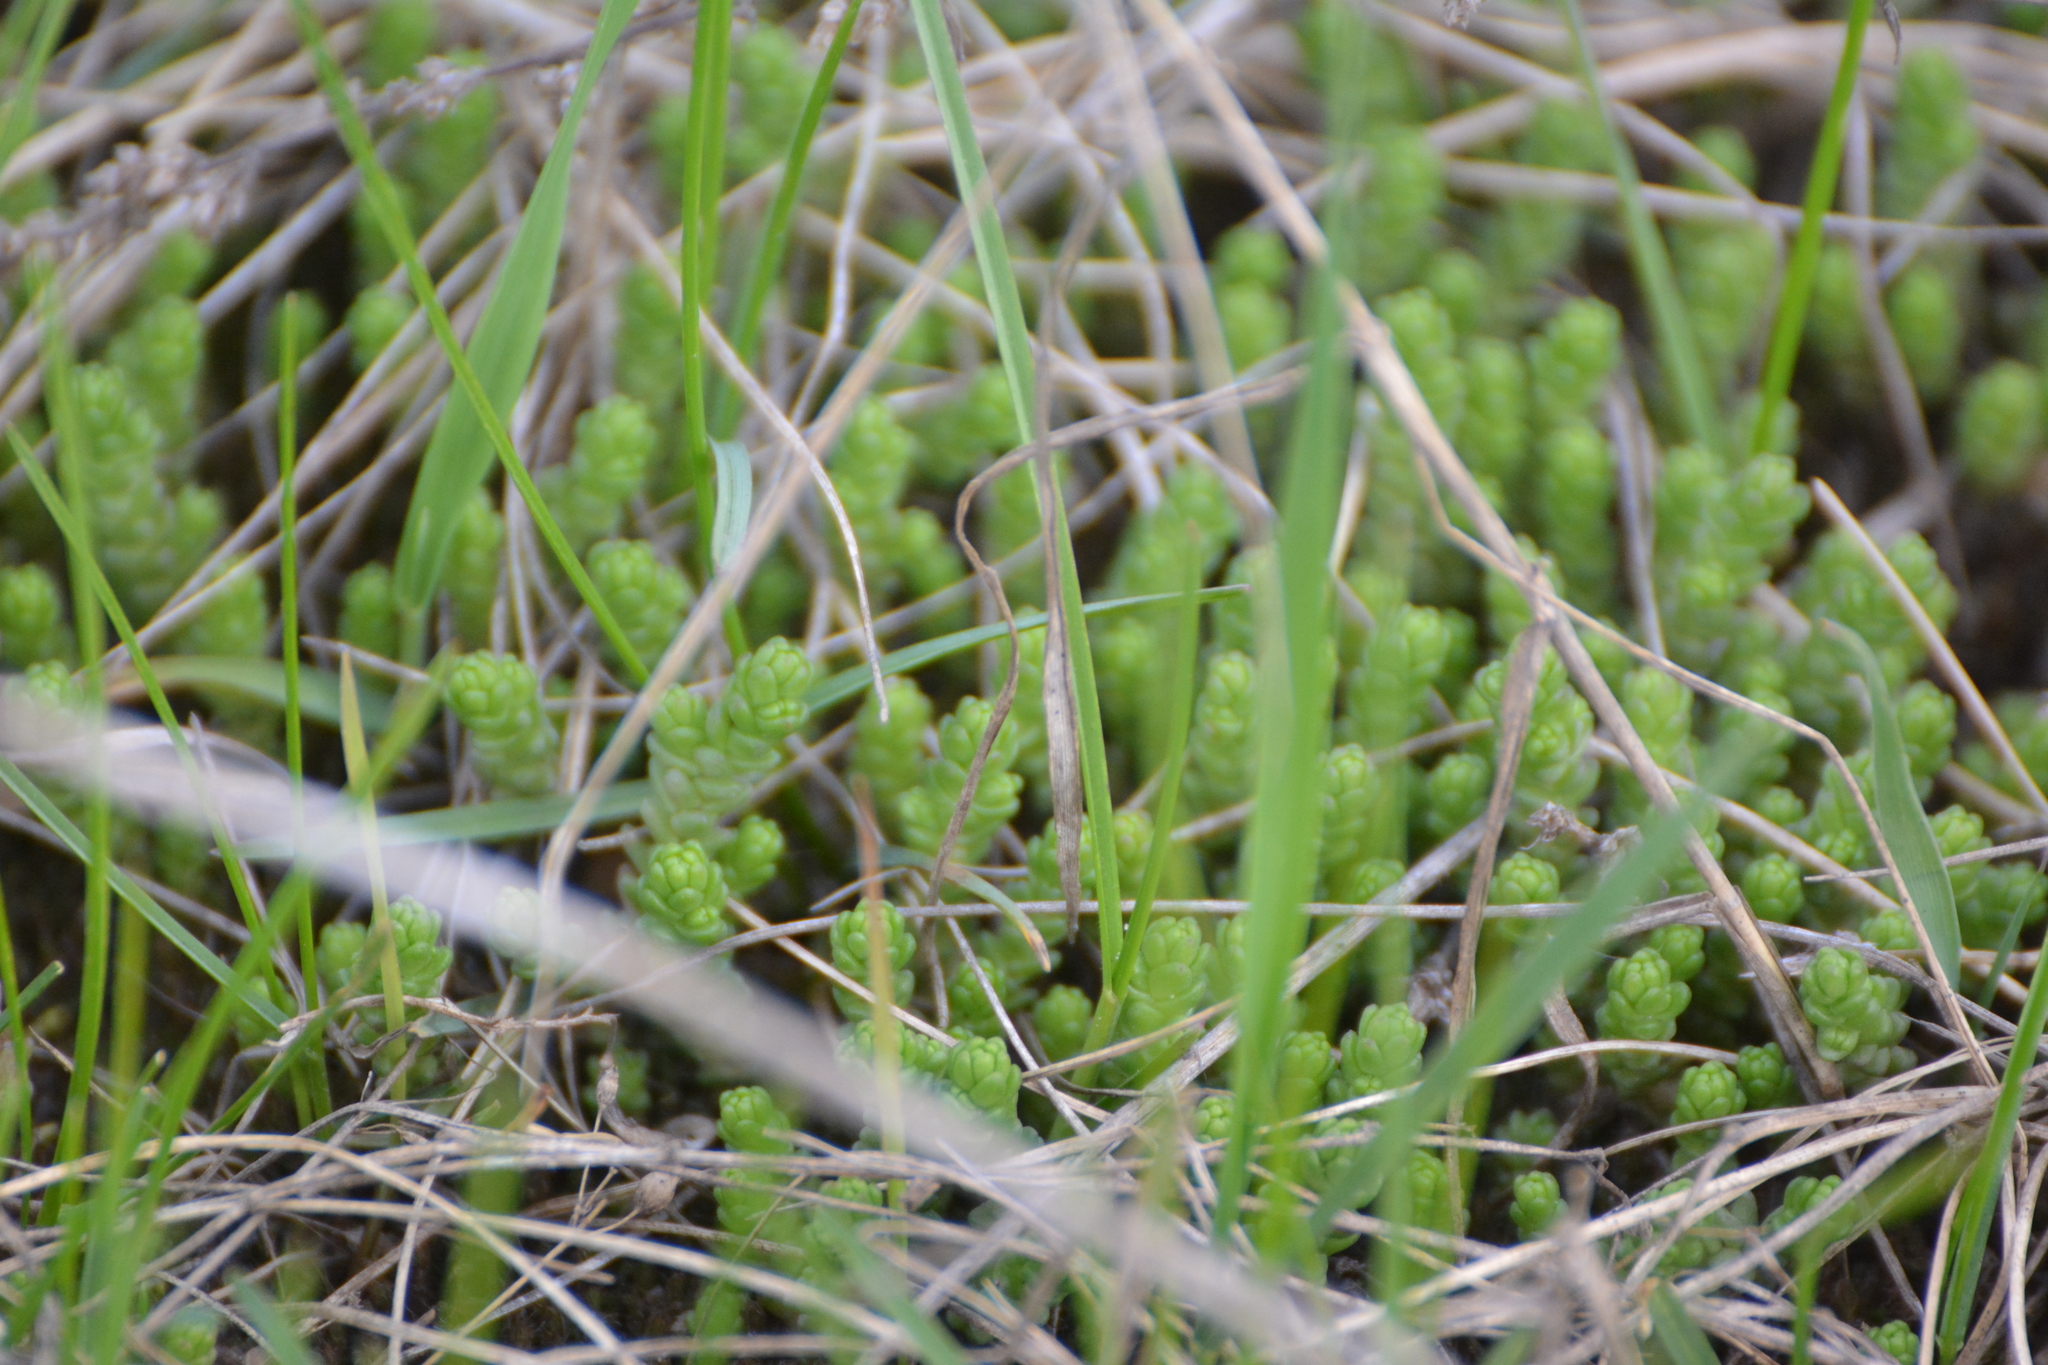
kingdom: Plantae
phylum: Tracheophyta
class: Magnoliopsida
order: Saxifragales
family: Crassulaceae
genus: Sedum
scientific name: Sedum acre
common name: Biting stonecrop
